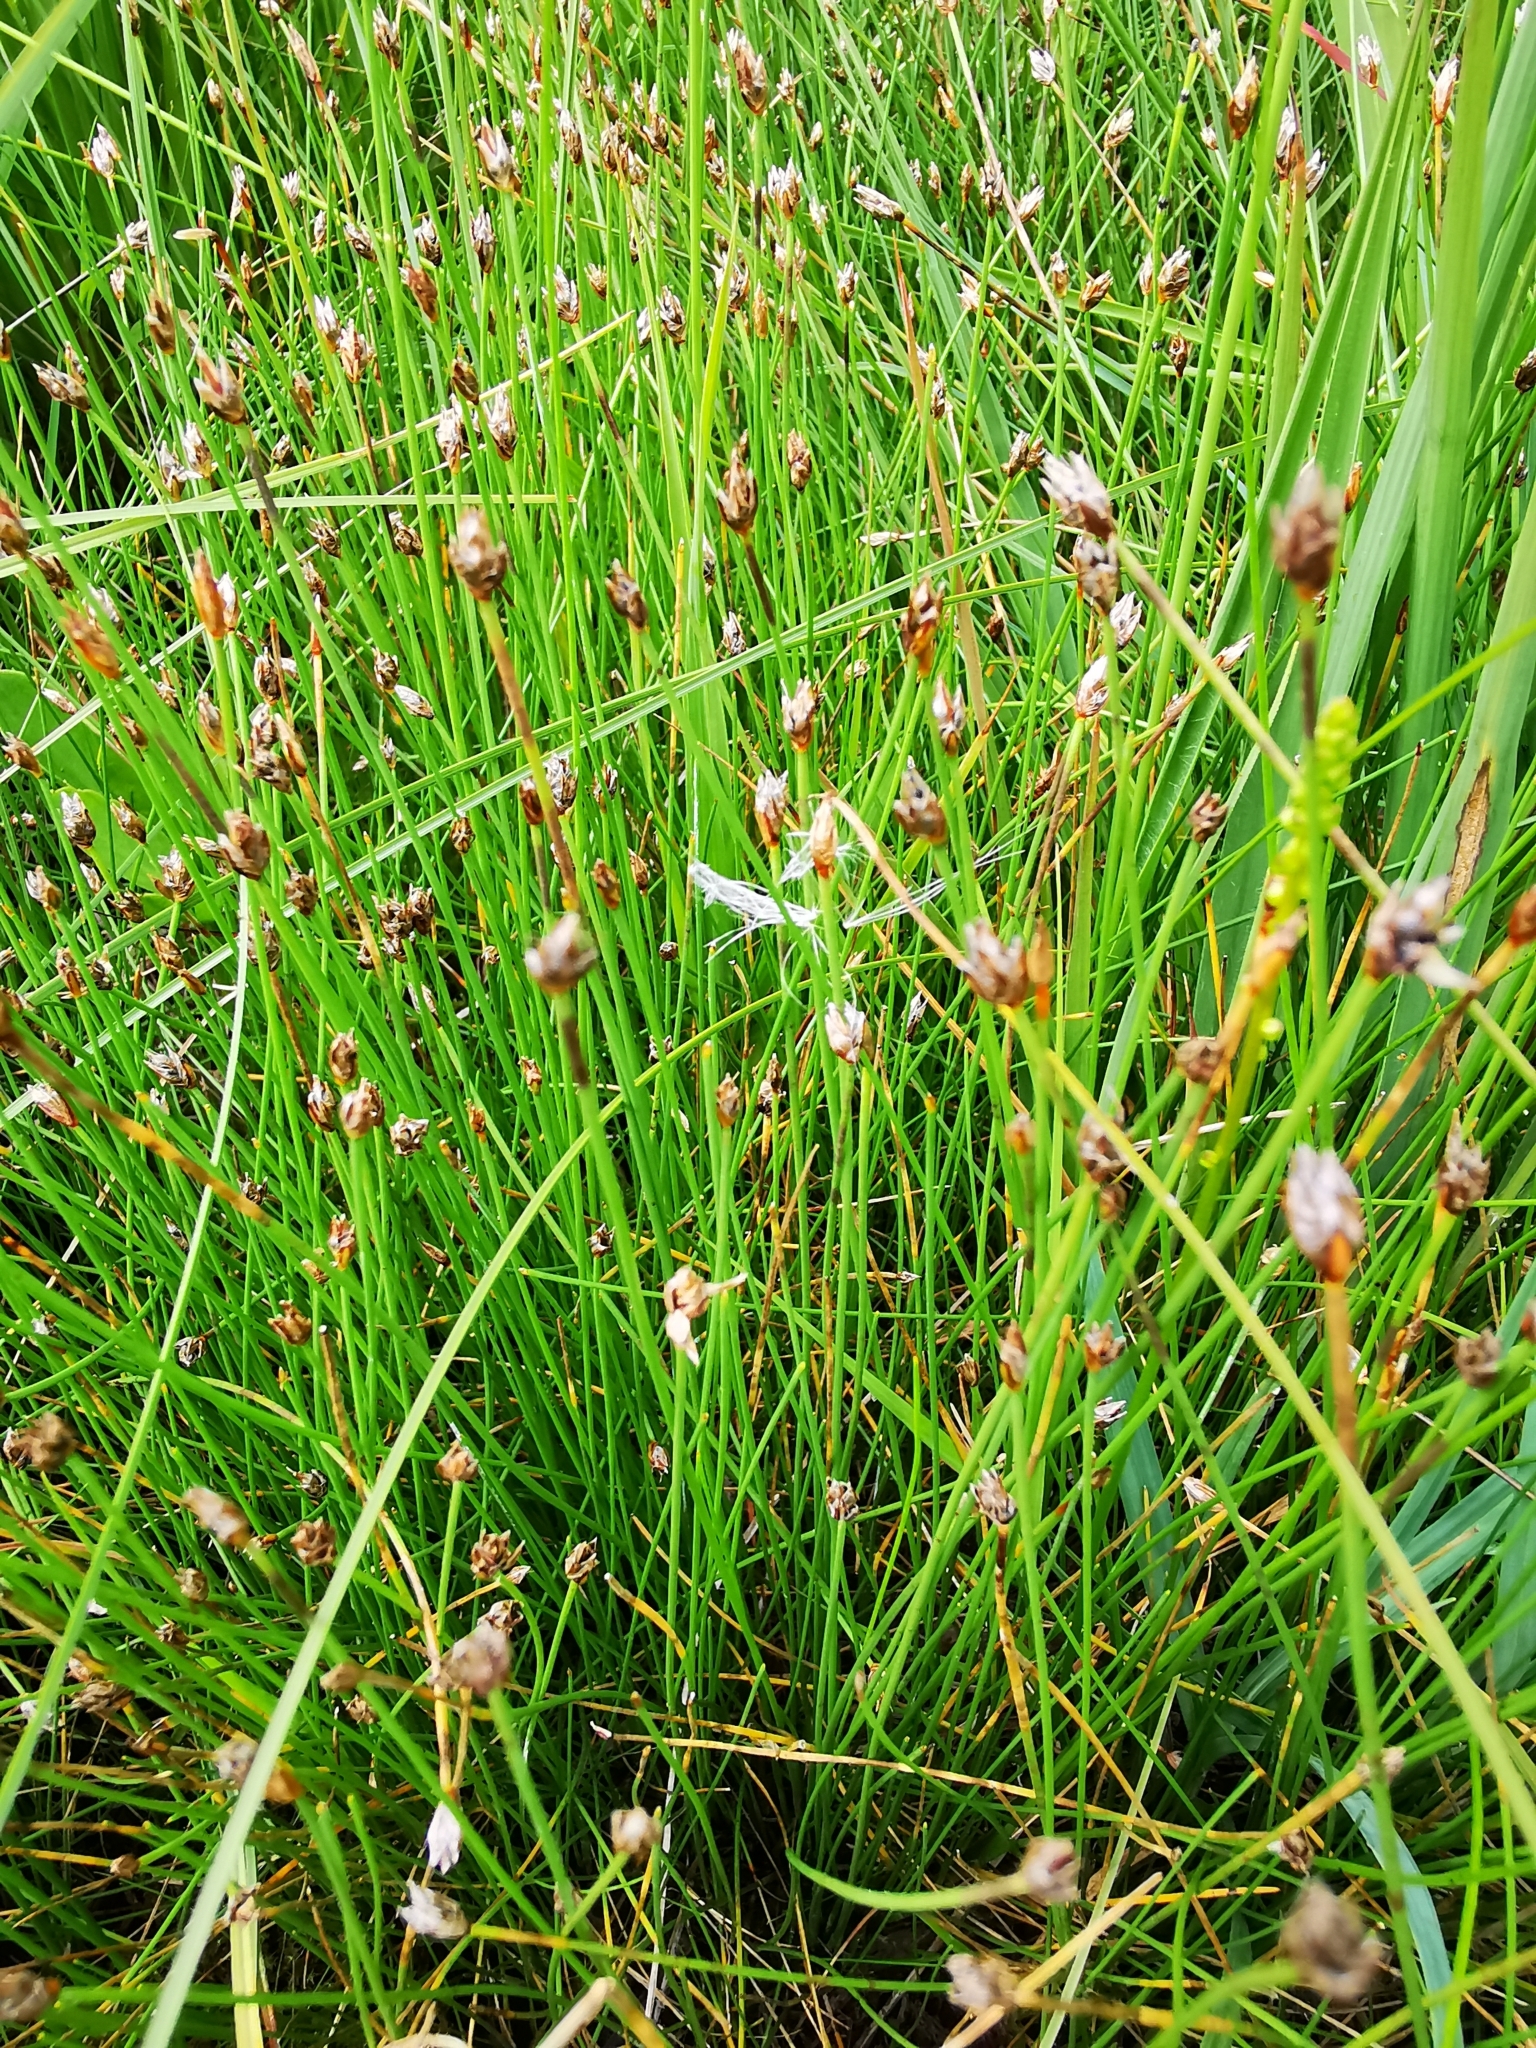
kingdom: Plantae
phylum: Tracheophyta
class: Liliopsida
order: Poales
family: Cyperaceae
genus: Eleocharis
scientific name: Eleocharis quinqueflora
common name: Few-flowered spike-rush
